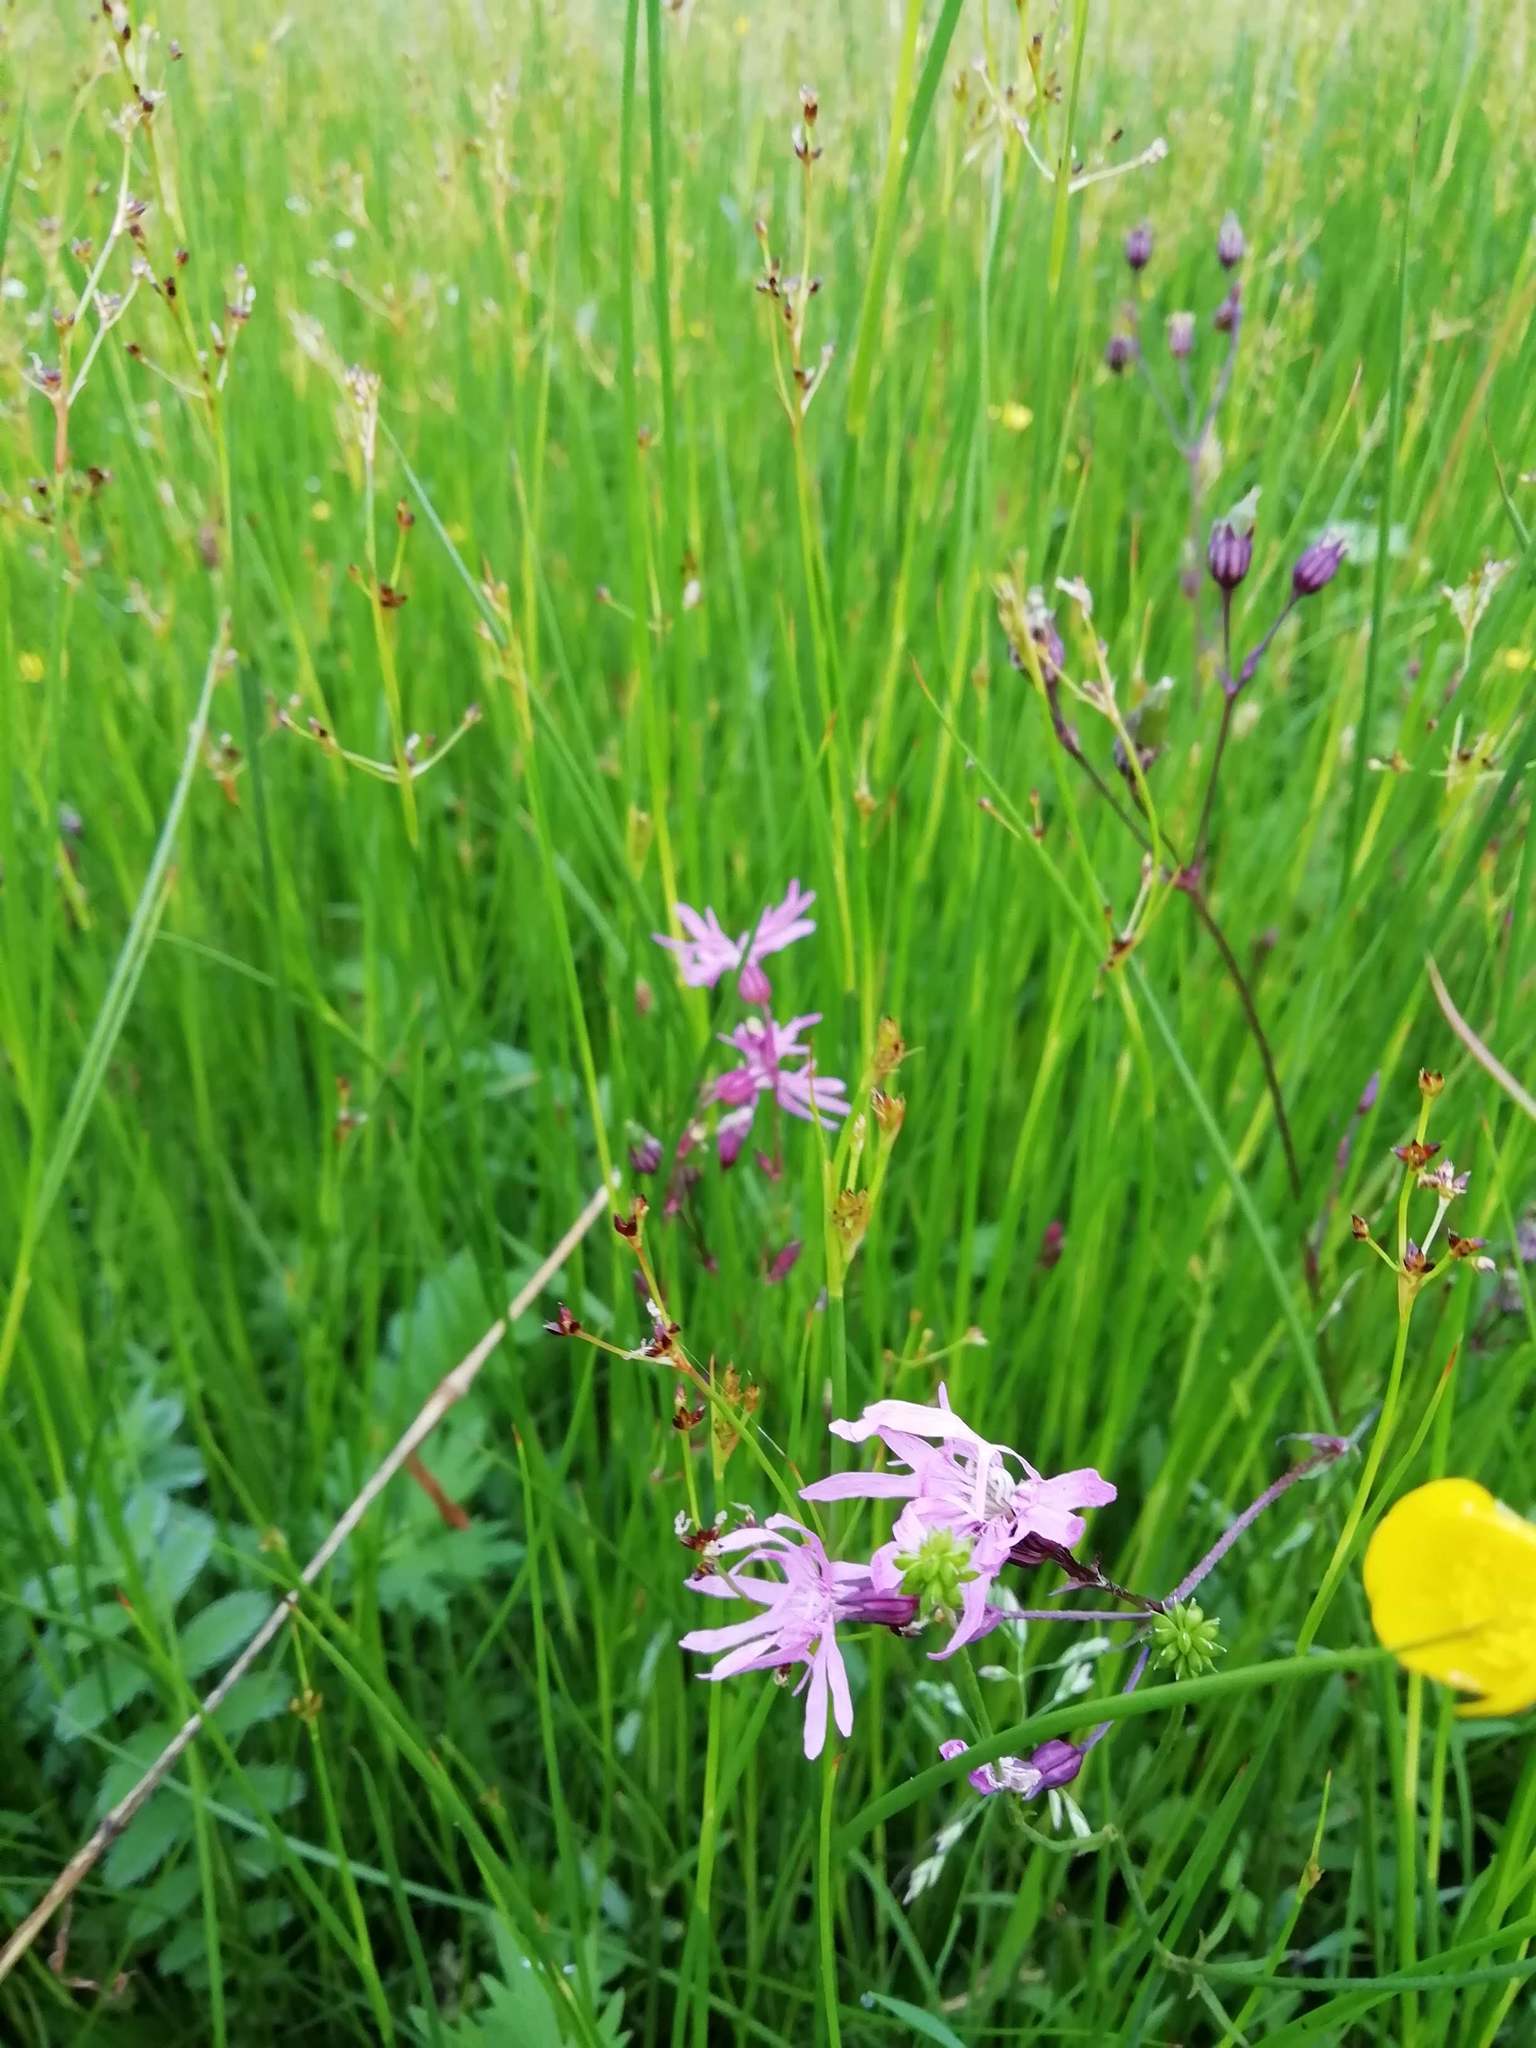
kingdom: Plantae
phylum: Tracheophyta
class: Magnoliopsida
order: Caryophyllales
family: Caryophyllaceae
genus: Silene
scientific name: Silene flos-cuculi
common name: Ragged-robin
